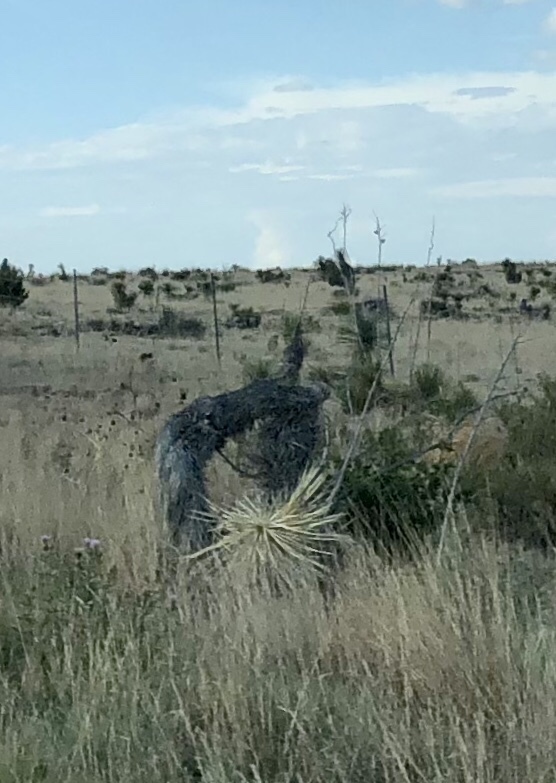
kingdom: Plantae
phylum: Tracheophyta
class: Liliopsida
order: Asparagales
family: Asparagaceae
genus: Yucca
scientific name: Yucca elata
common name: Palmella
